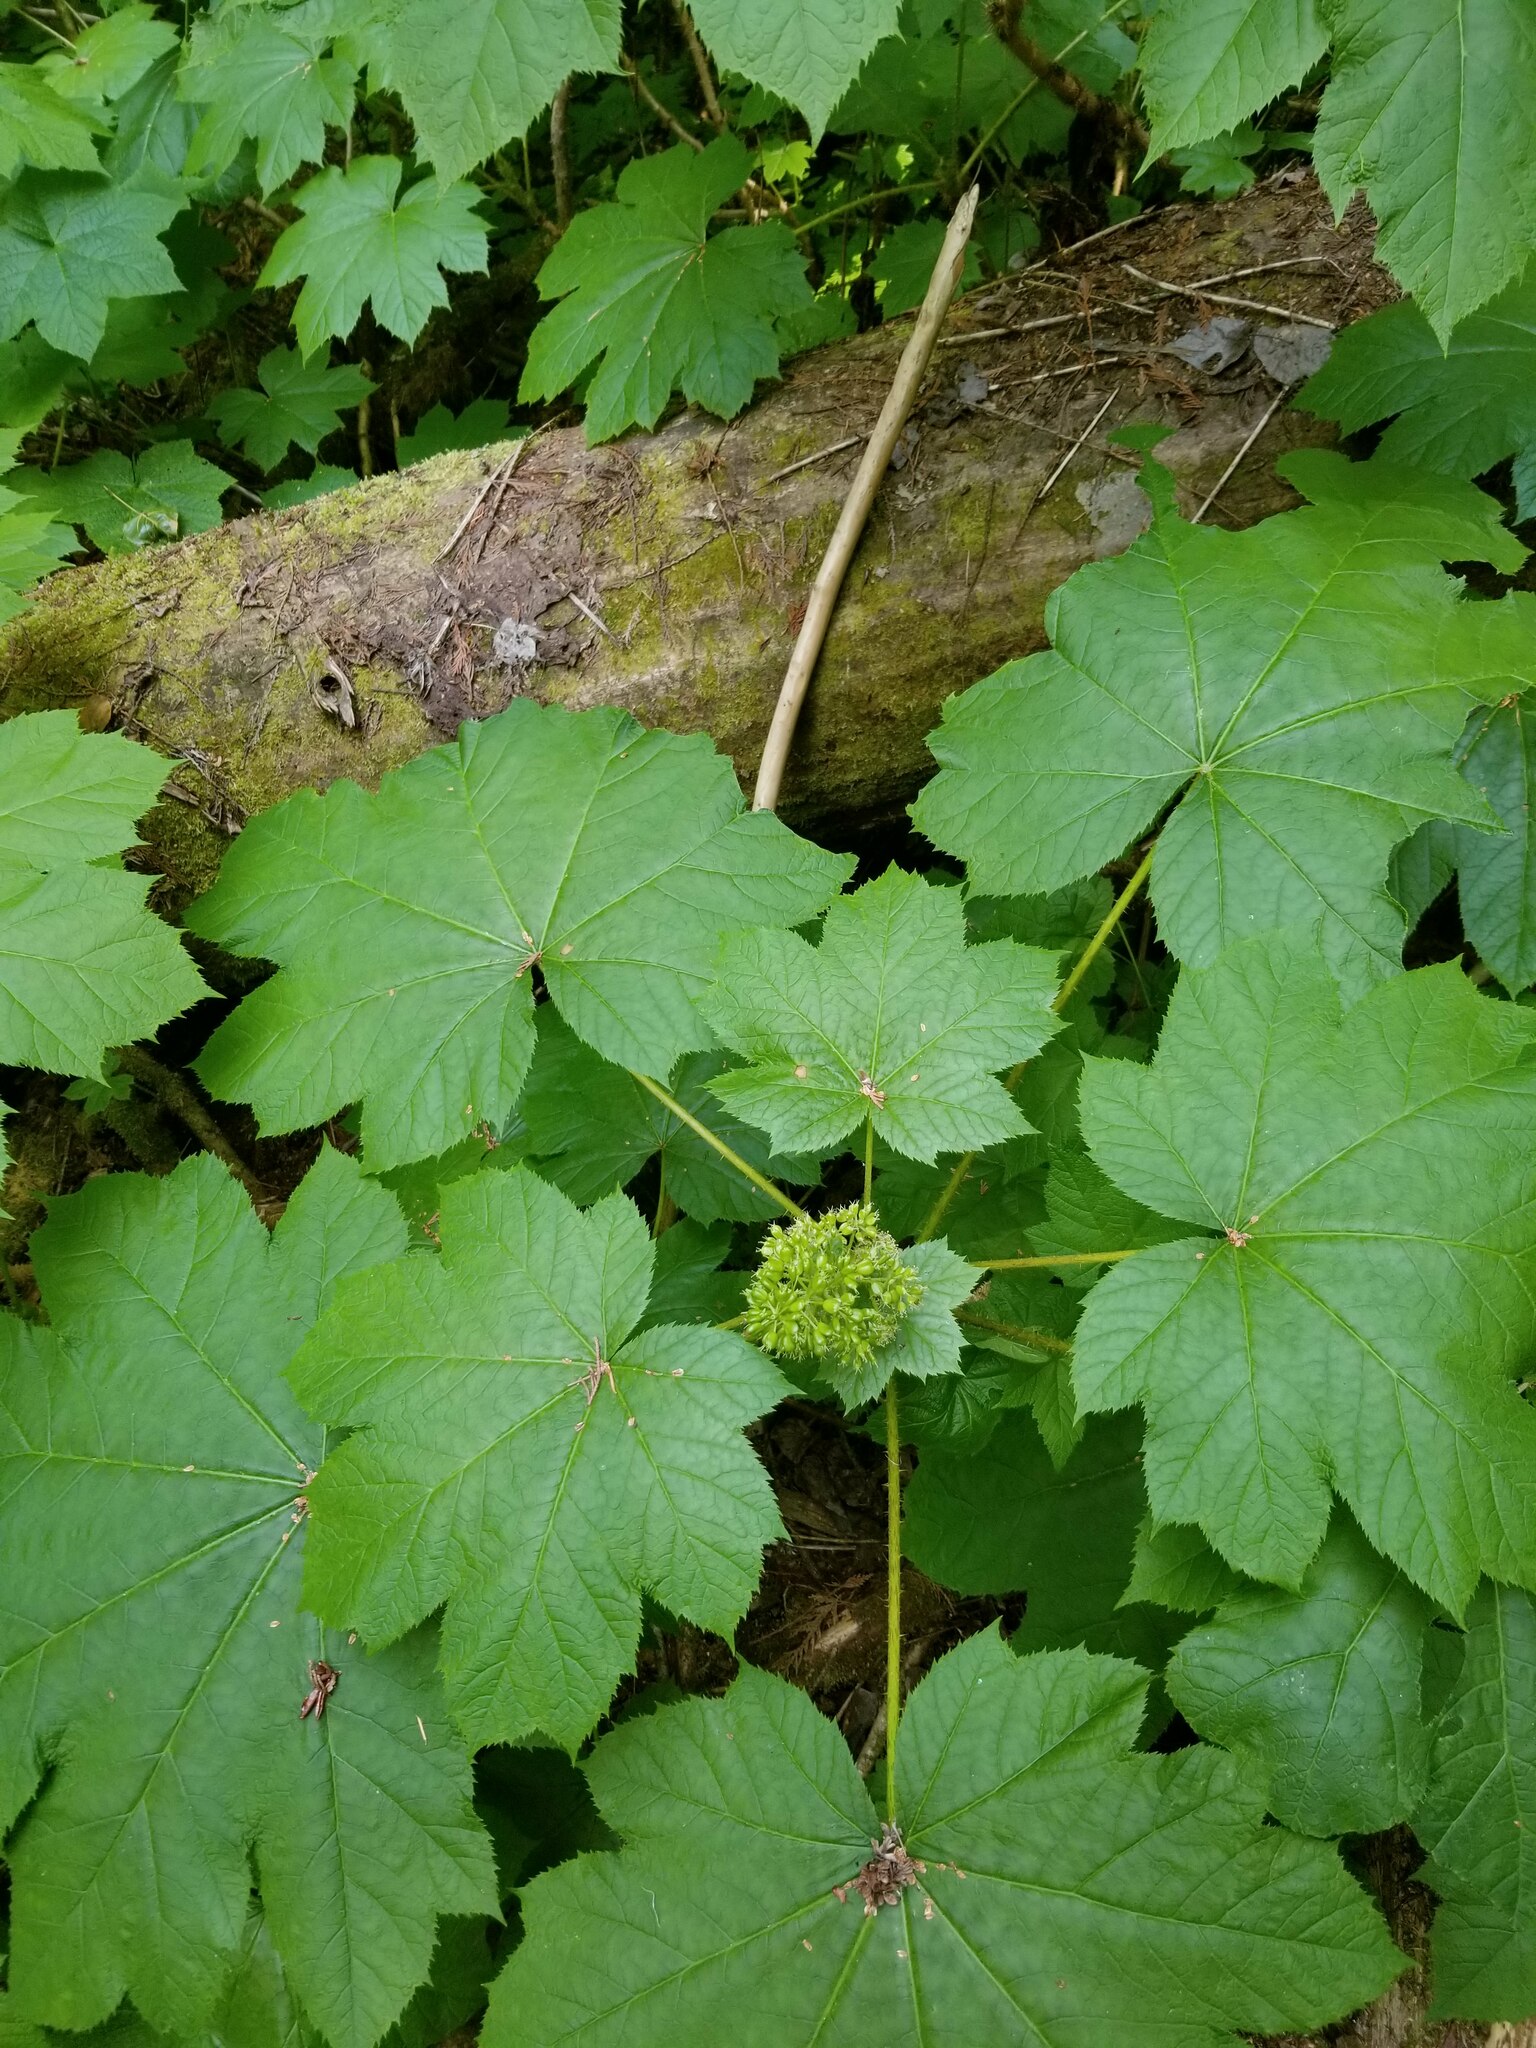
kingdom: Plantae
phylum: Tracheophyta
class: Magnoliopsida
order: Apiales
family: Araliaceae
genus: Oplopanax
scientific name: Oplopanax horridus
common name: Devil's walking-stick
